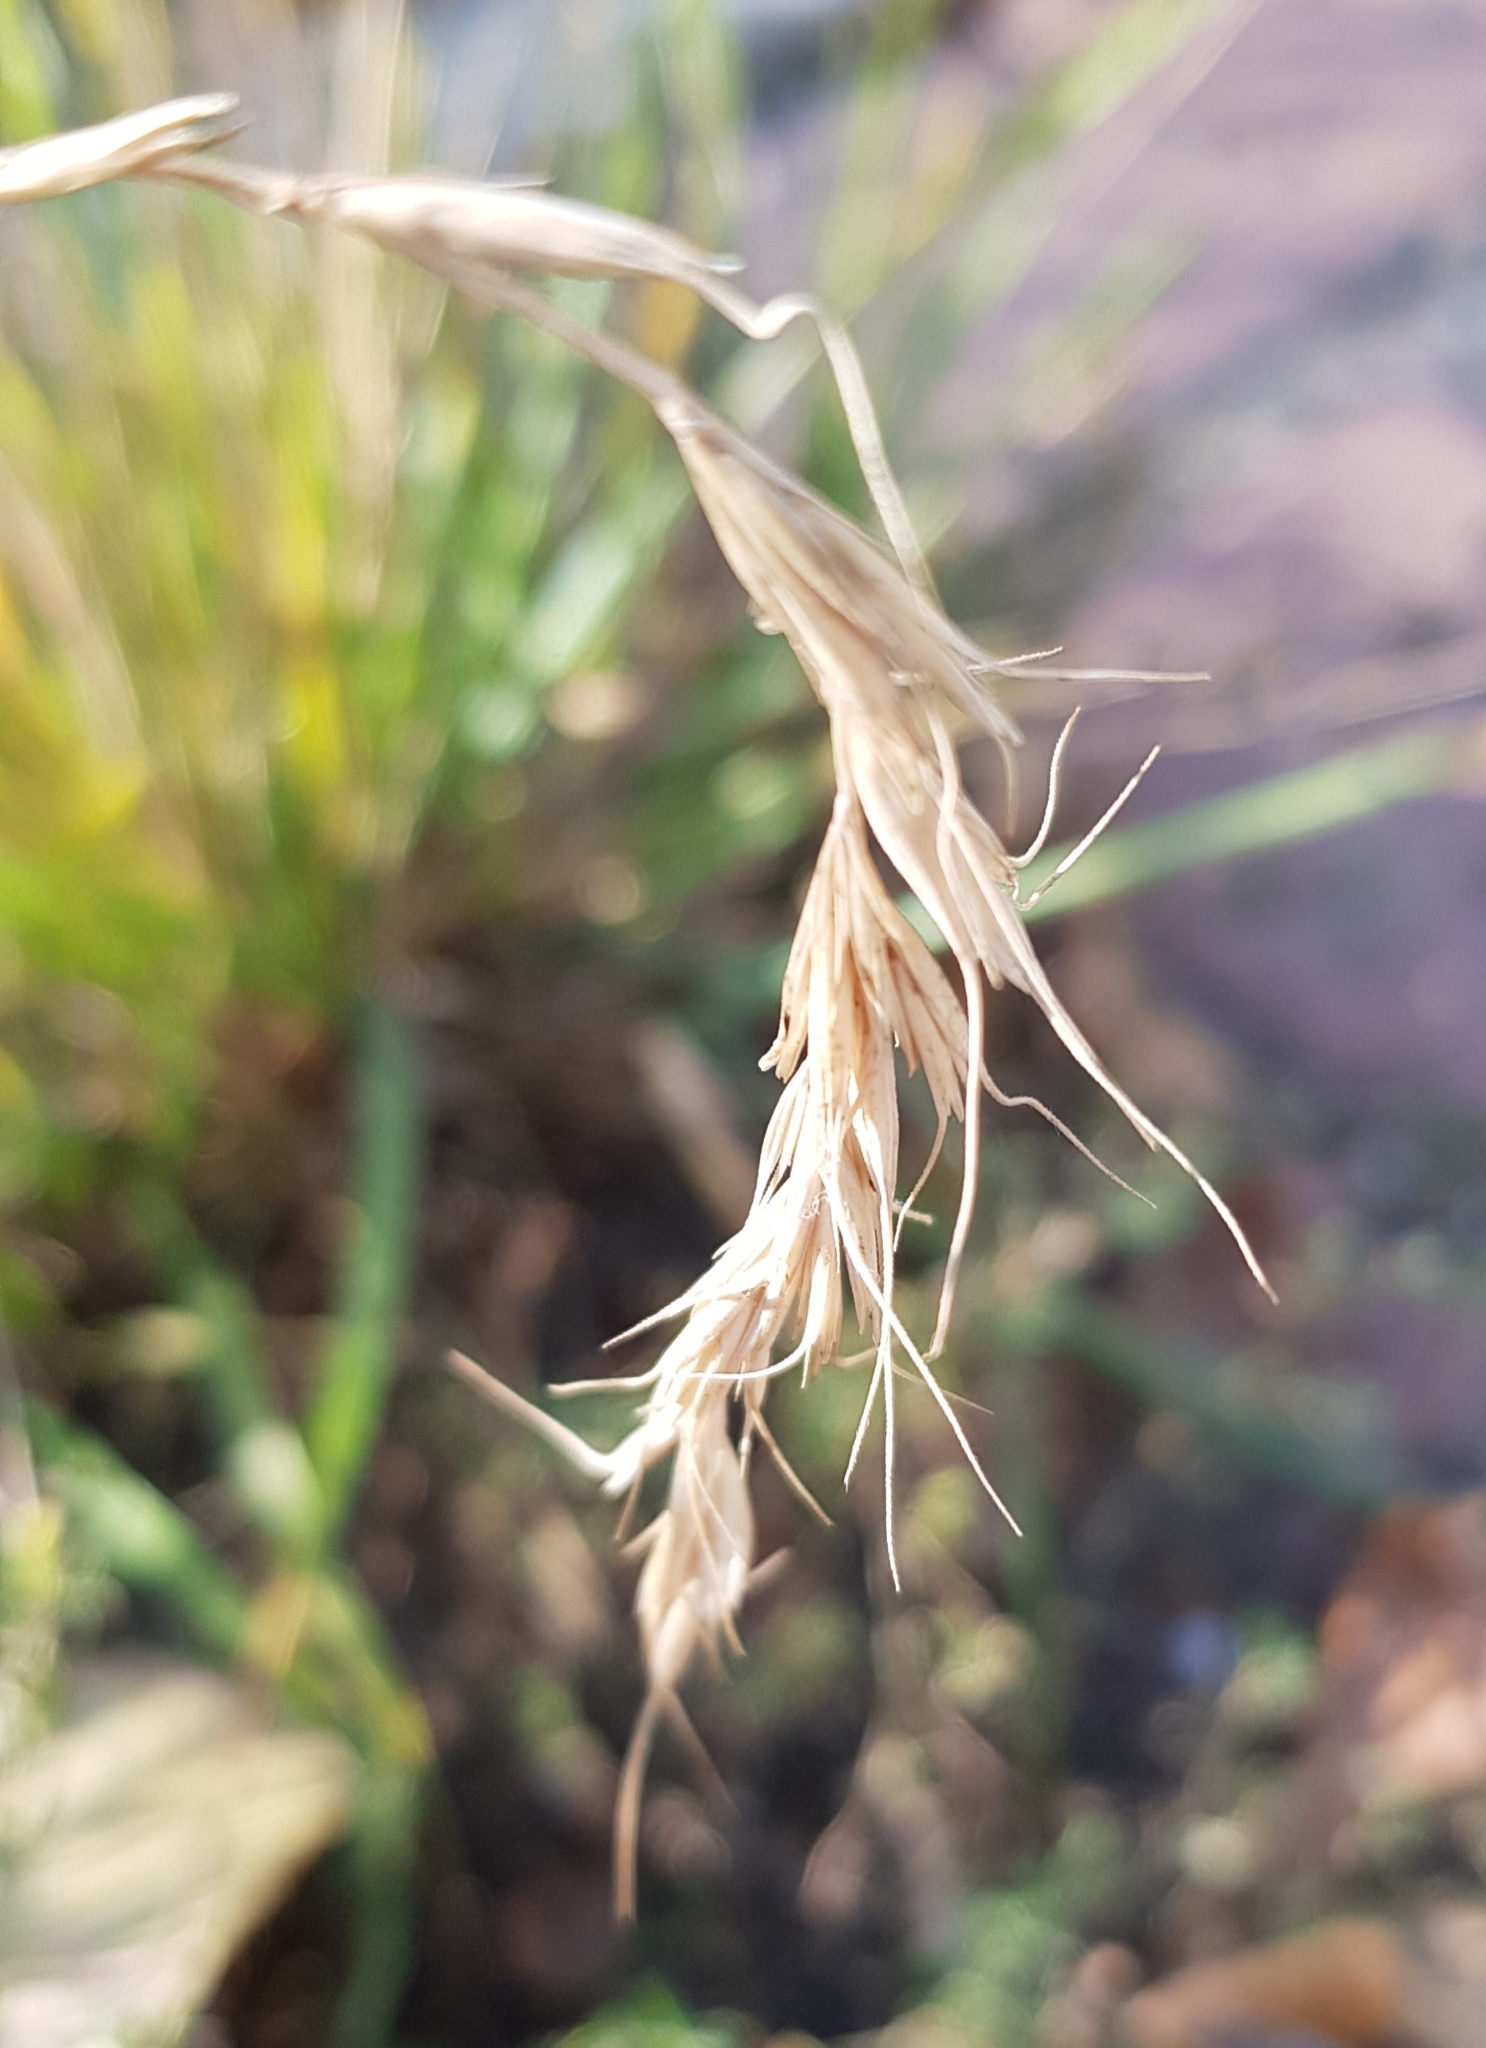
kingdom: Plantae
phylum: Tracheophyta
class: Liliopsida
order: Poales
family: Poaceae
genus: Elymus
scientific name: Elymus sibiricus
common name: Siberian wildrye
